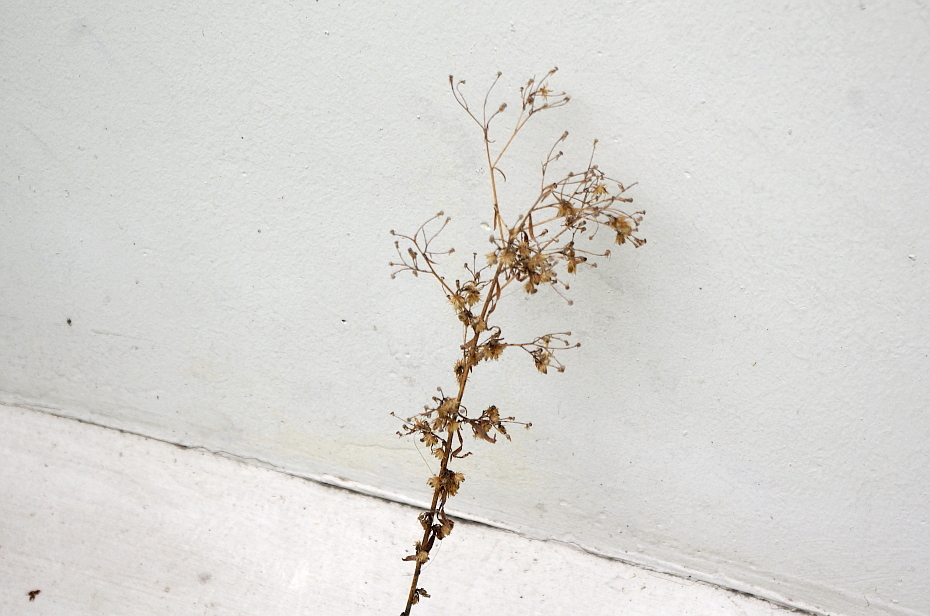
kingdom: Plantae
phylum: Tracheophyta
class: Magnoliopsida
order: Asterales
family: Asteraceae
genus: Erigeron
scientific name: Erigeron canadensis
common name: Canadian fleabane
